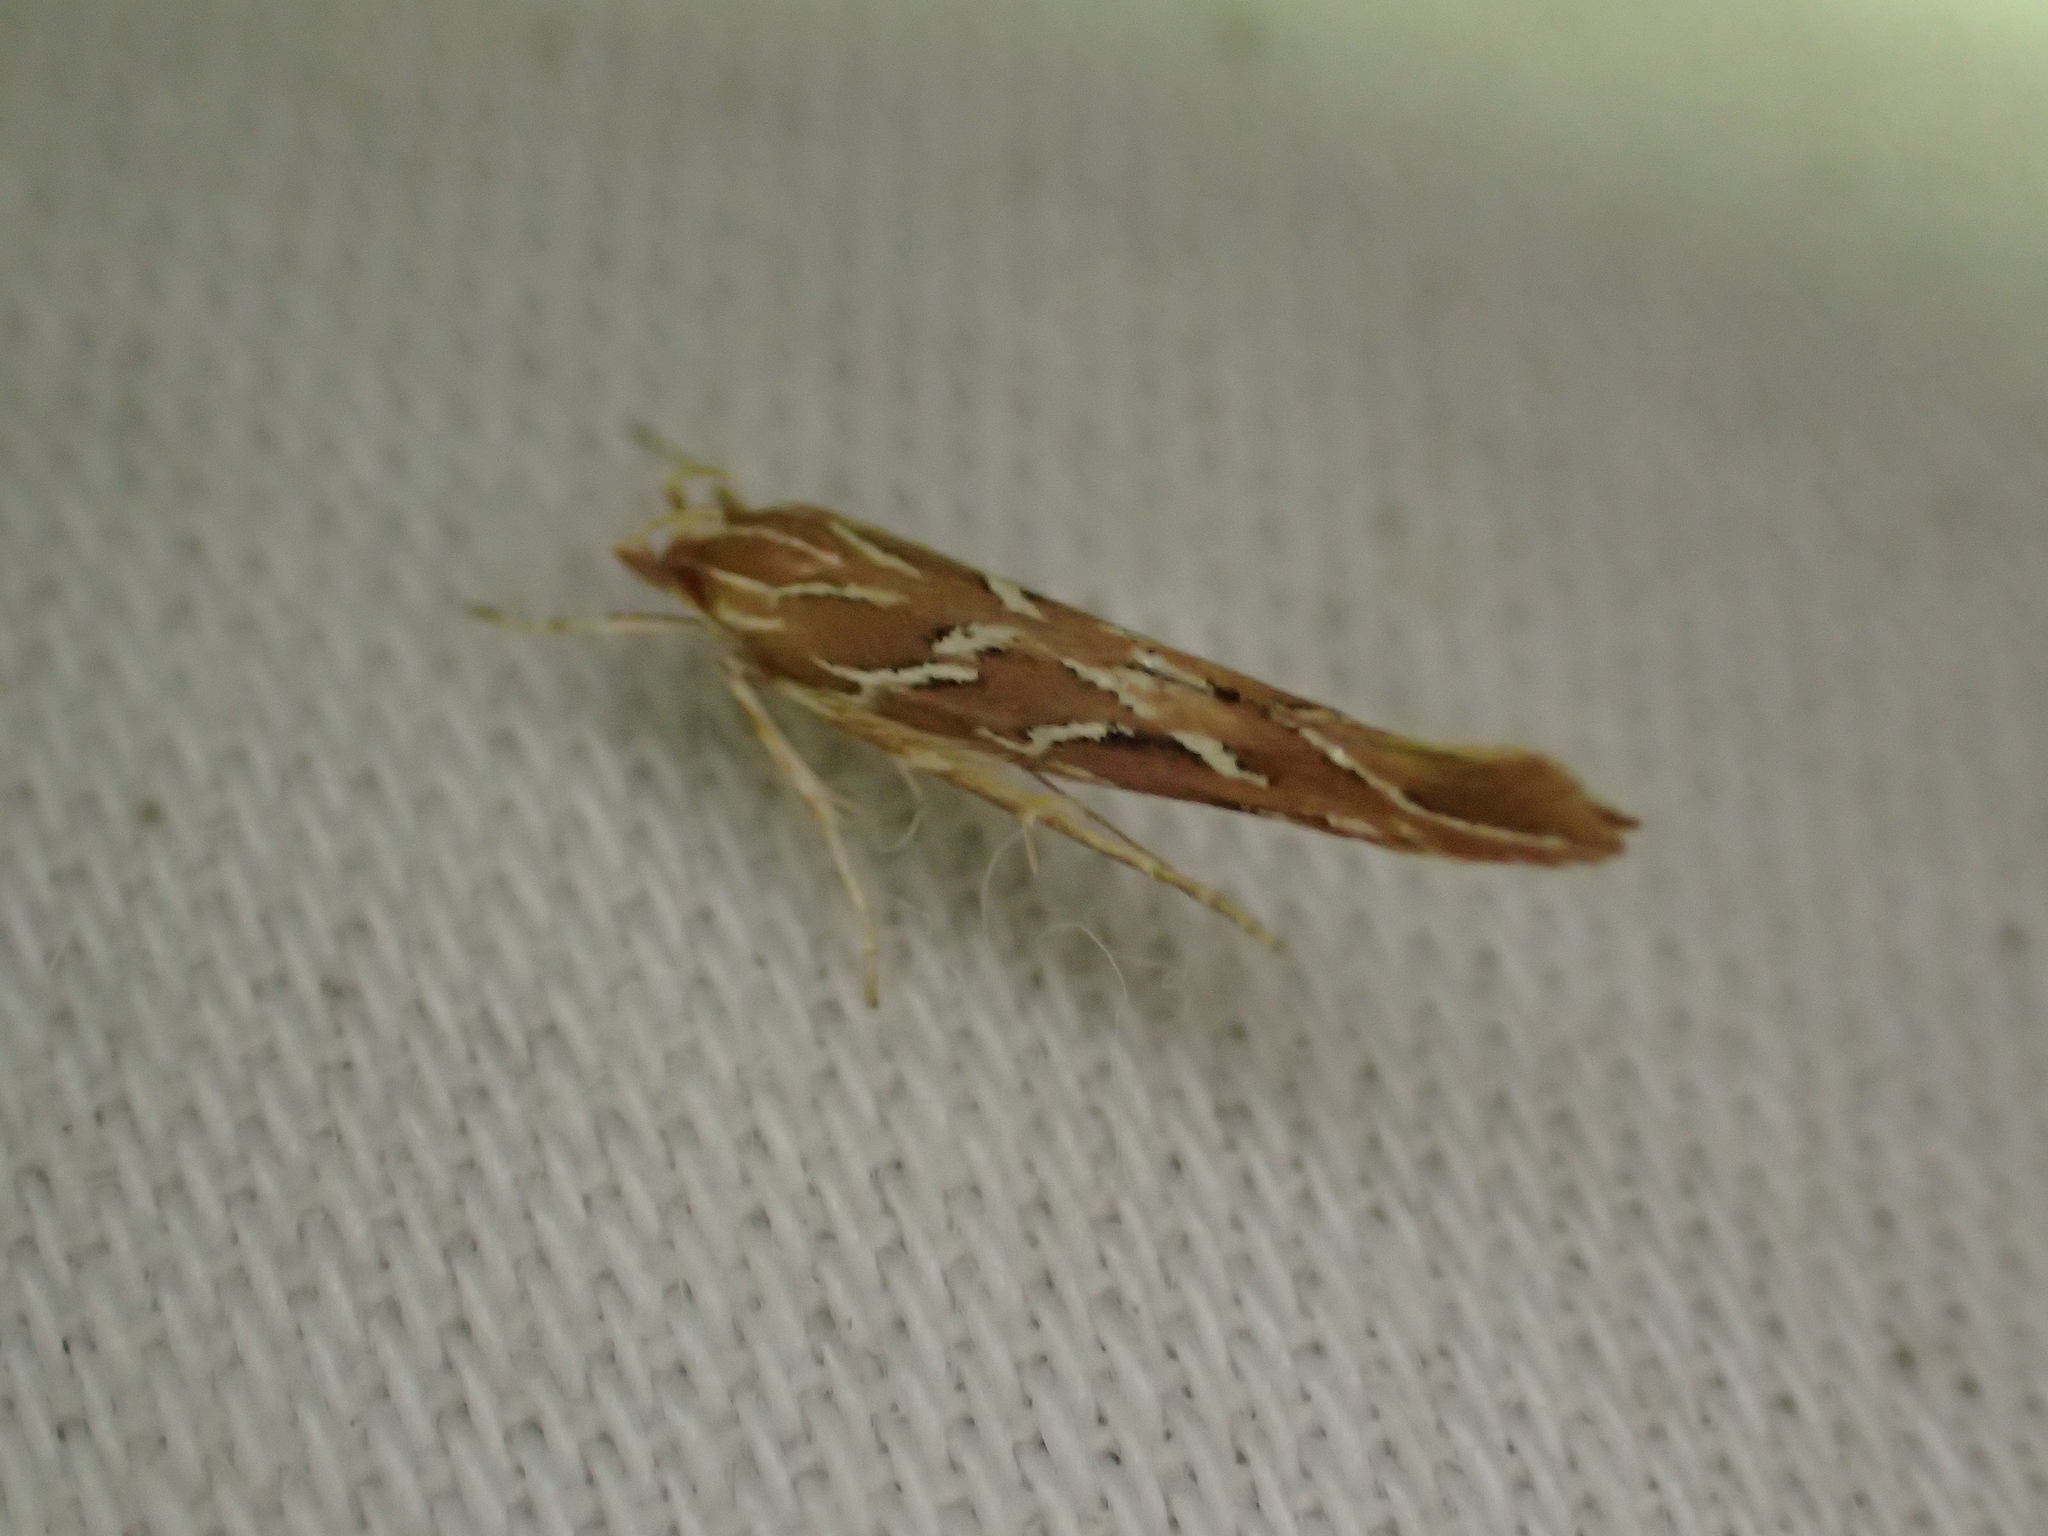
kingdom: Animalia
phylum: Arthropoda
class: Insecta
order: Lepidoptera
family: Cosmopterigidae
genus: Pyroderces
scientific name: Pyroderces argyrogrammos
